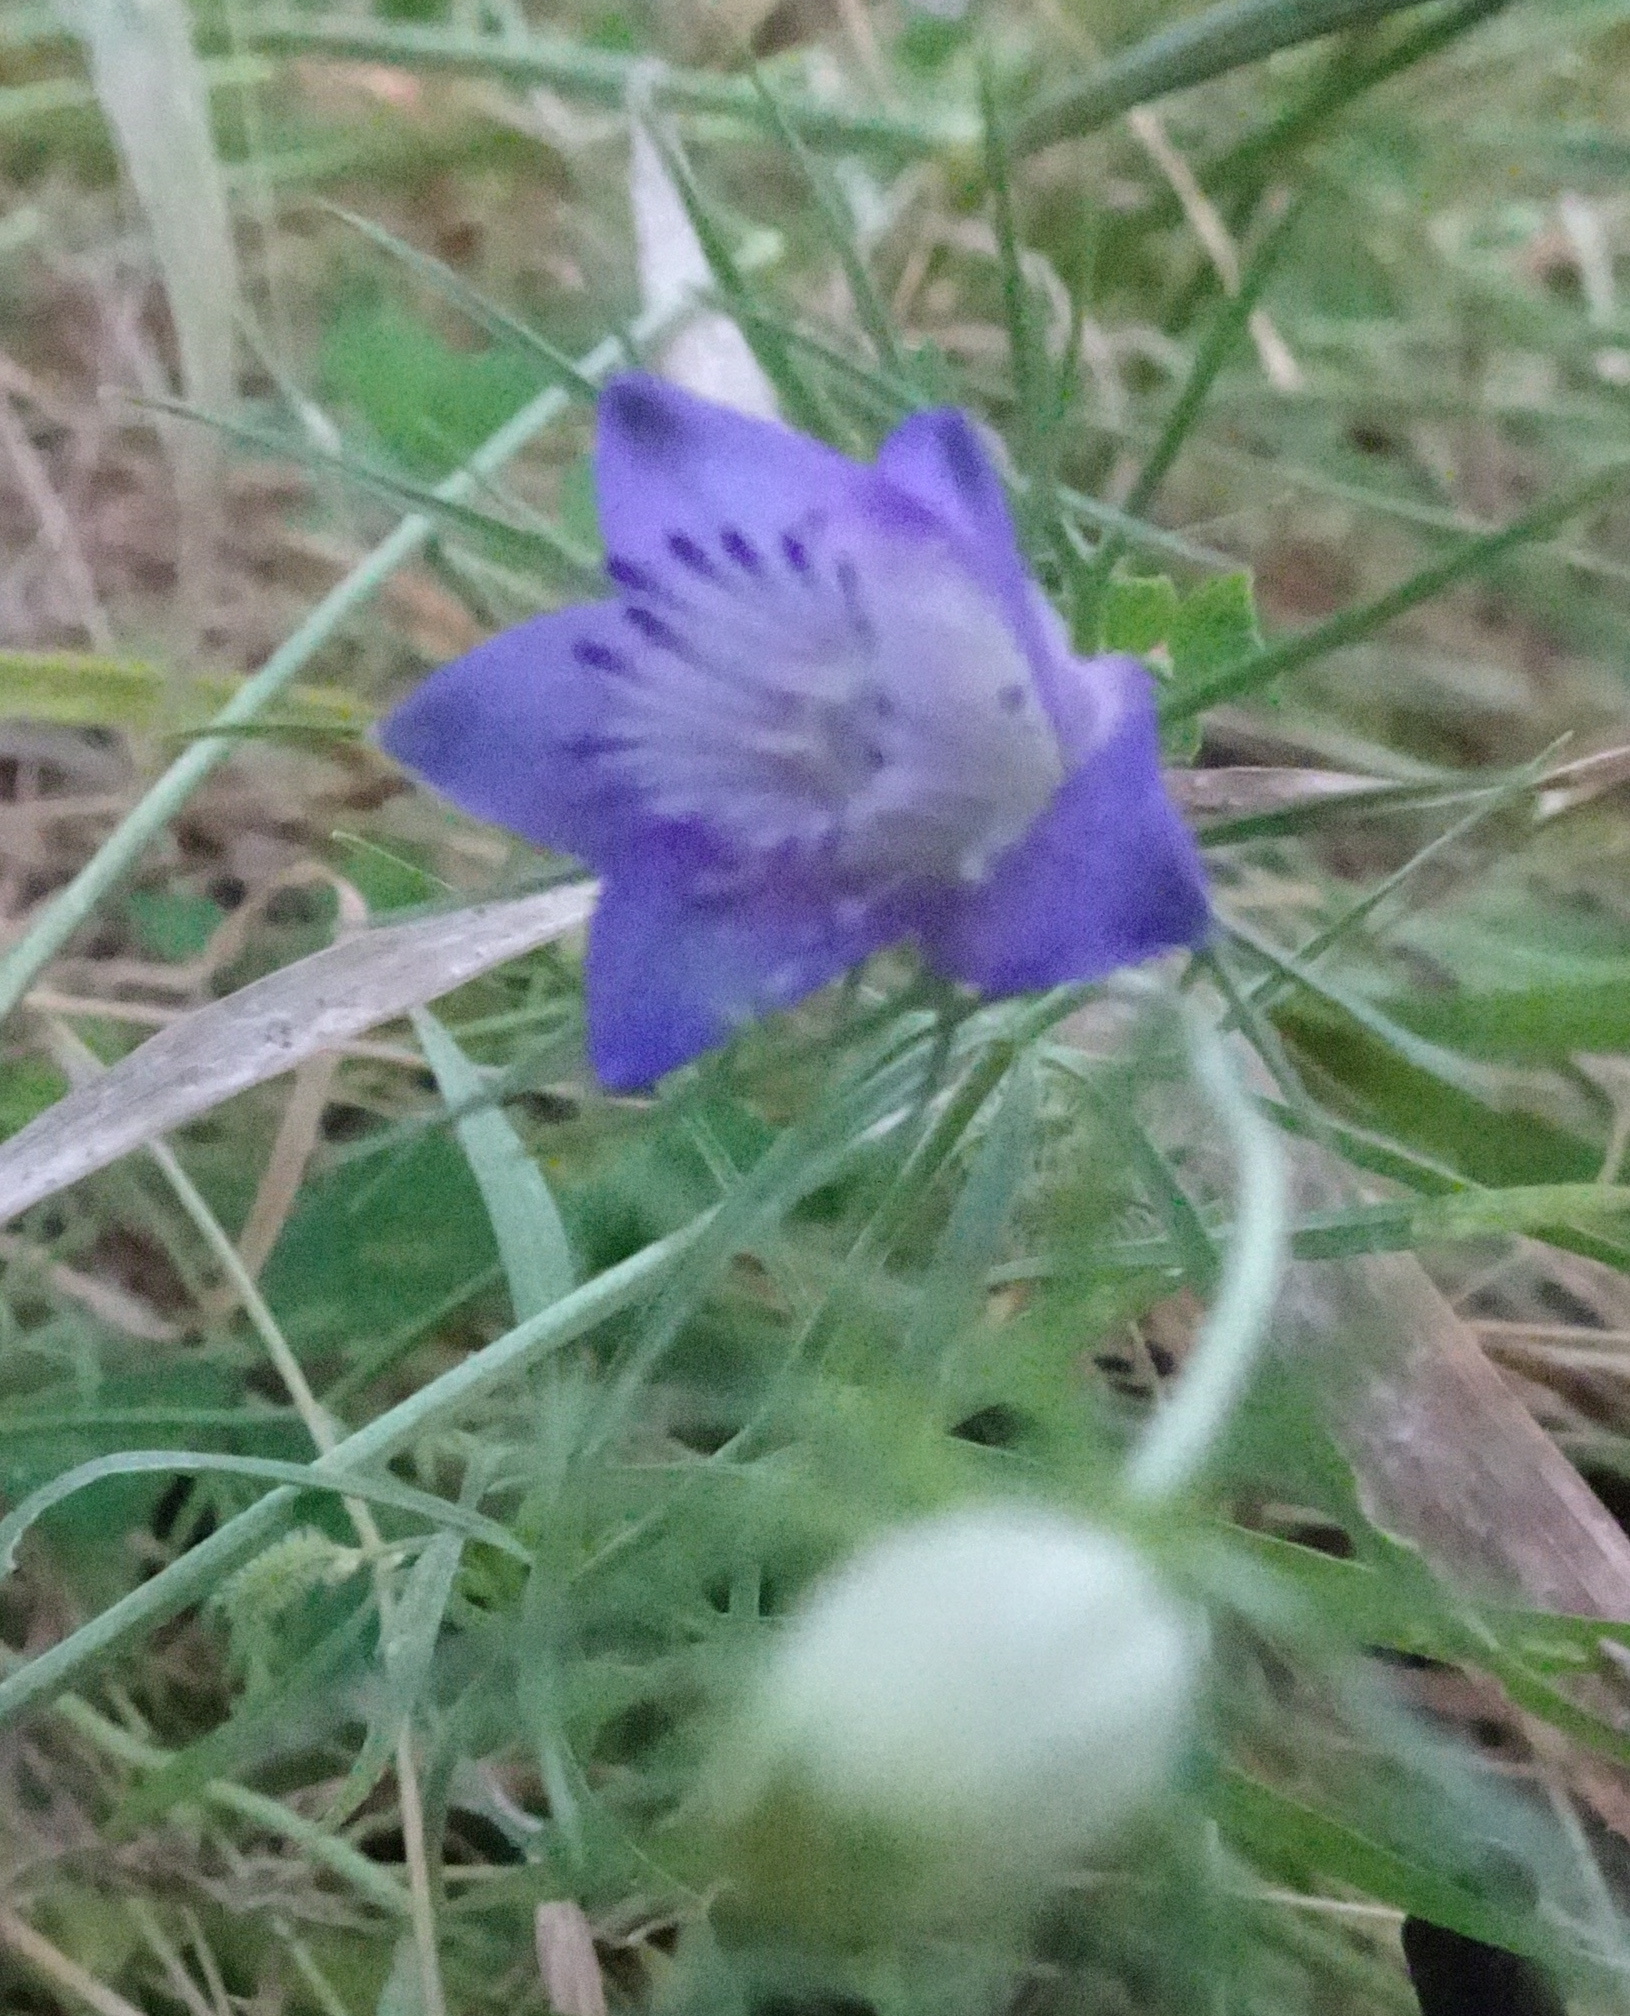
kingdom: Plantae
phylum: Tracheophyta
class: Magnoliopsida
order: Ranunculales
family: Ranunculaceae
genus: Komaroffia
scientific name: Komaroffia integrifolia
